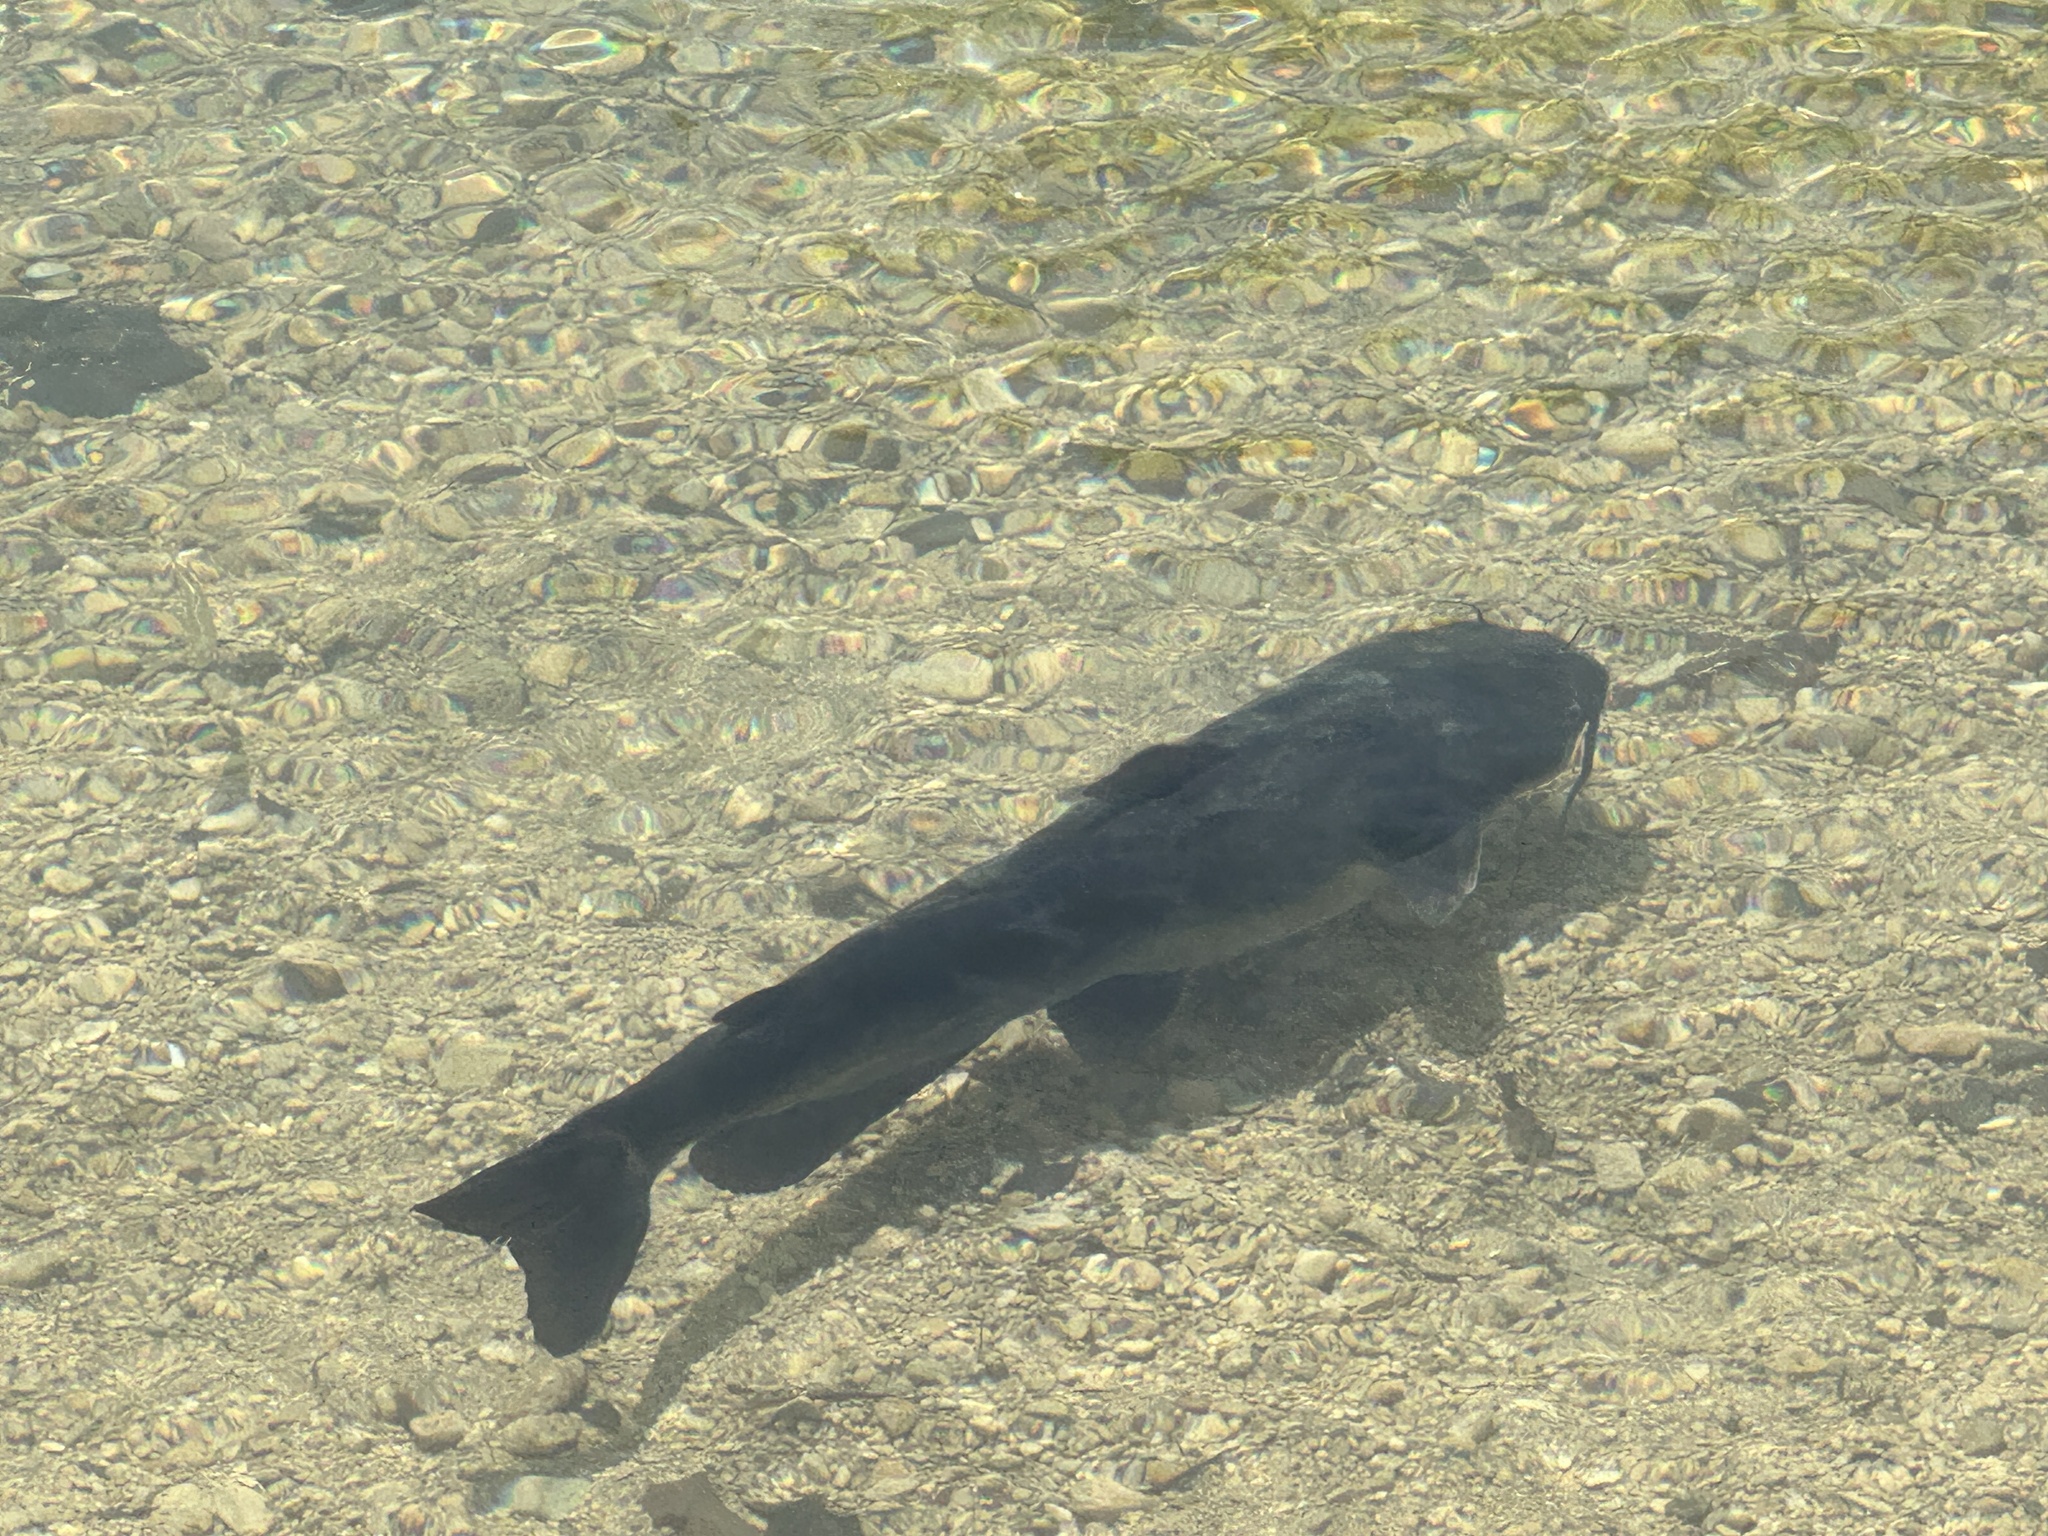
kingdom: Animalia
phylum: Chordata
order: Siluriformes
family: Ictaluridae
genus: Ictalurus
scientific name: Ictalurus punctatus
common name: Channel catfish
